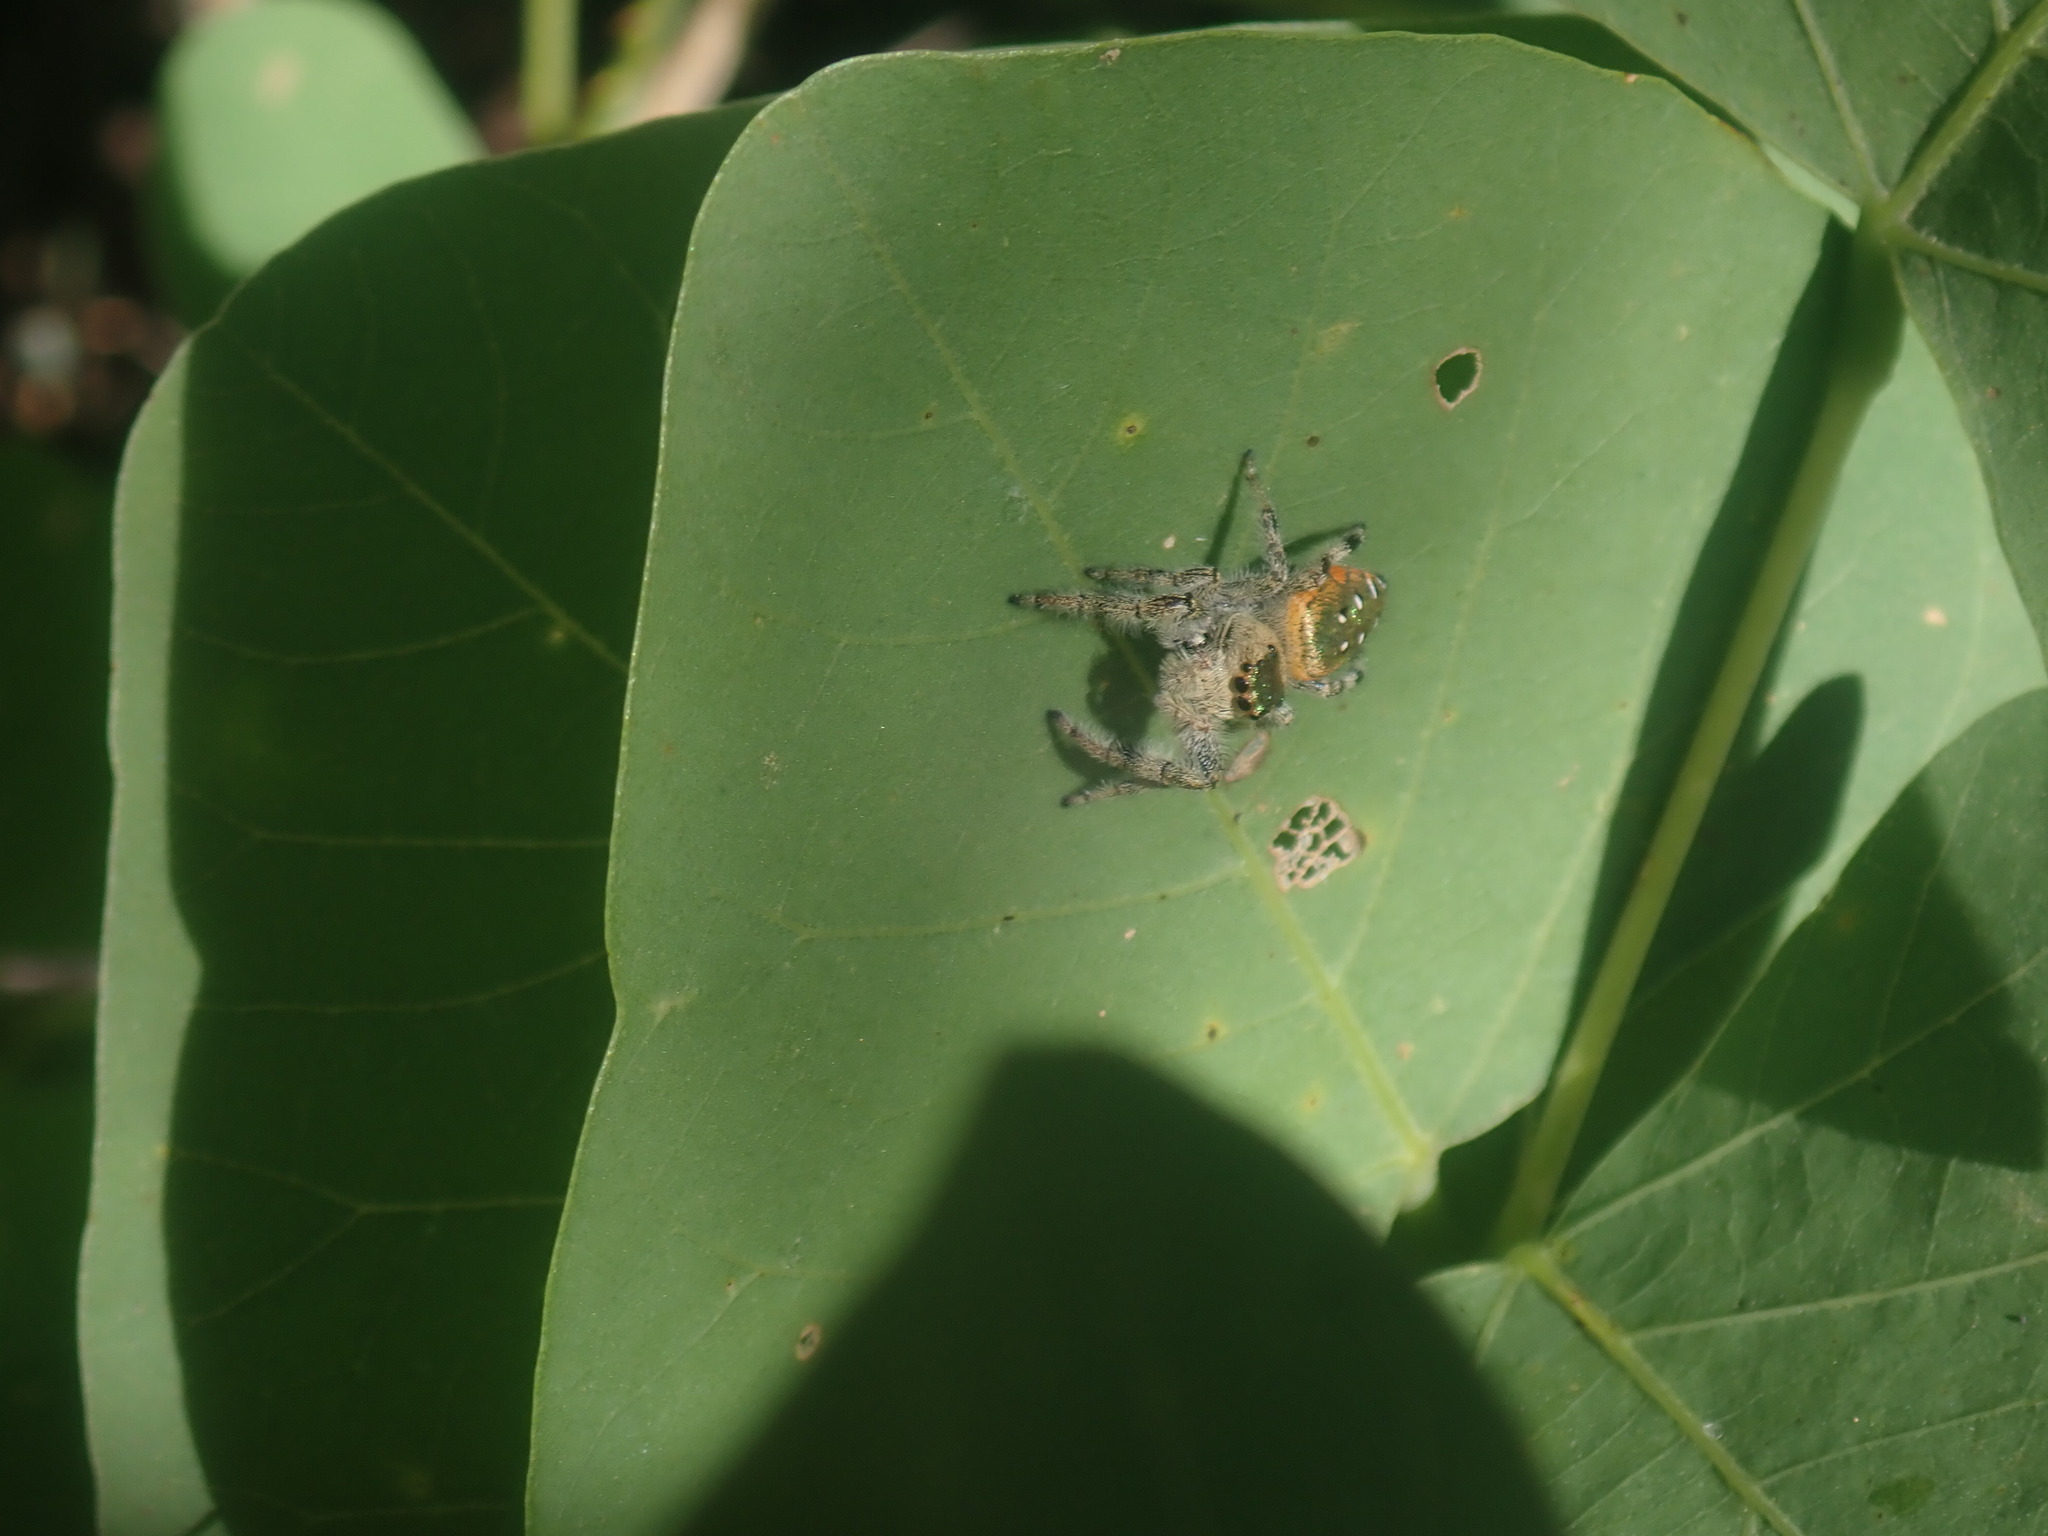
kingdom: Animalia
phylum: Arthropoda
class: Arachnida
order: Araneae
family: Salticidae
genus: Paraphidippus
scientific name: Paraphidippus aurantius
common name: Jumping spiders
